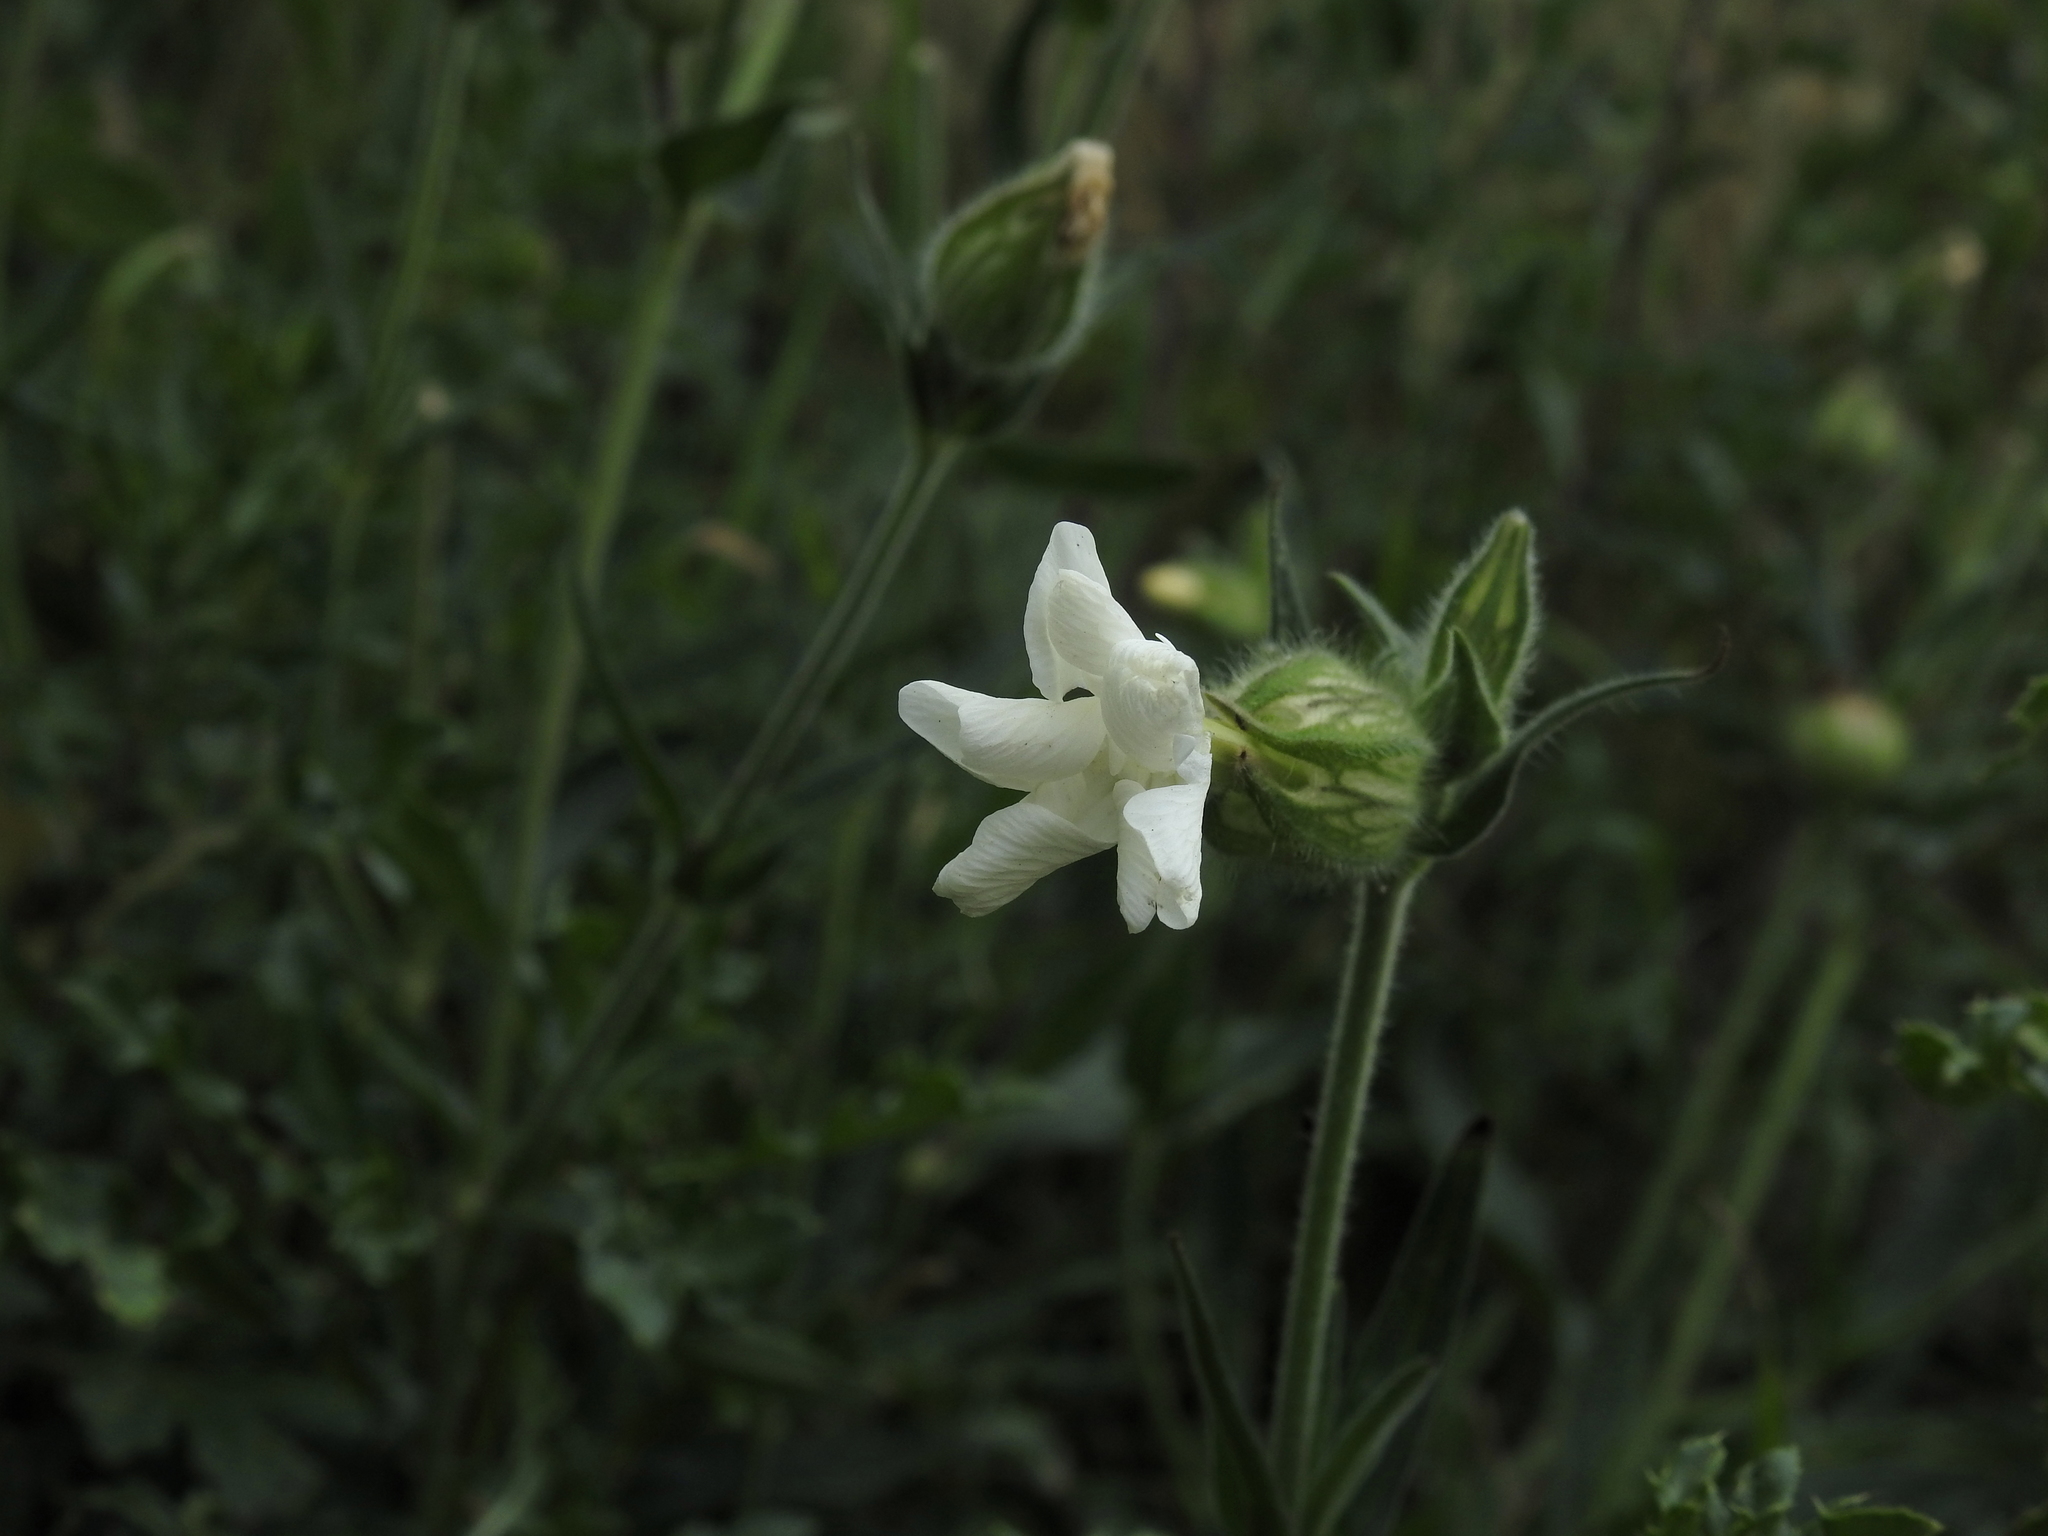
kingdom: Plantae
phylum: Tracheophyta
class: Magnoliopsida
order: Caryophyllales
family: Caryophyllaceae
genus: Silene
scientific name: Silene latifolia
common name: White campion
